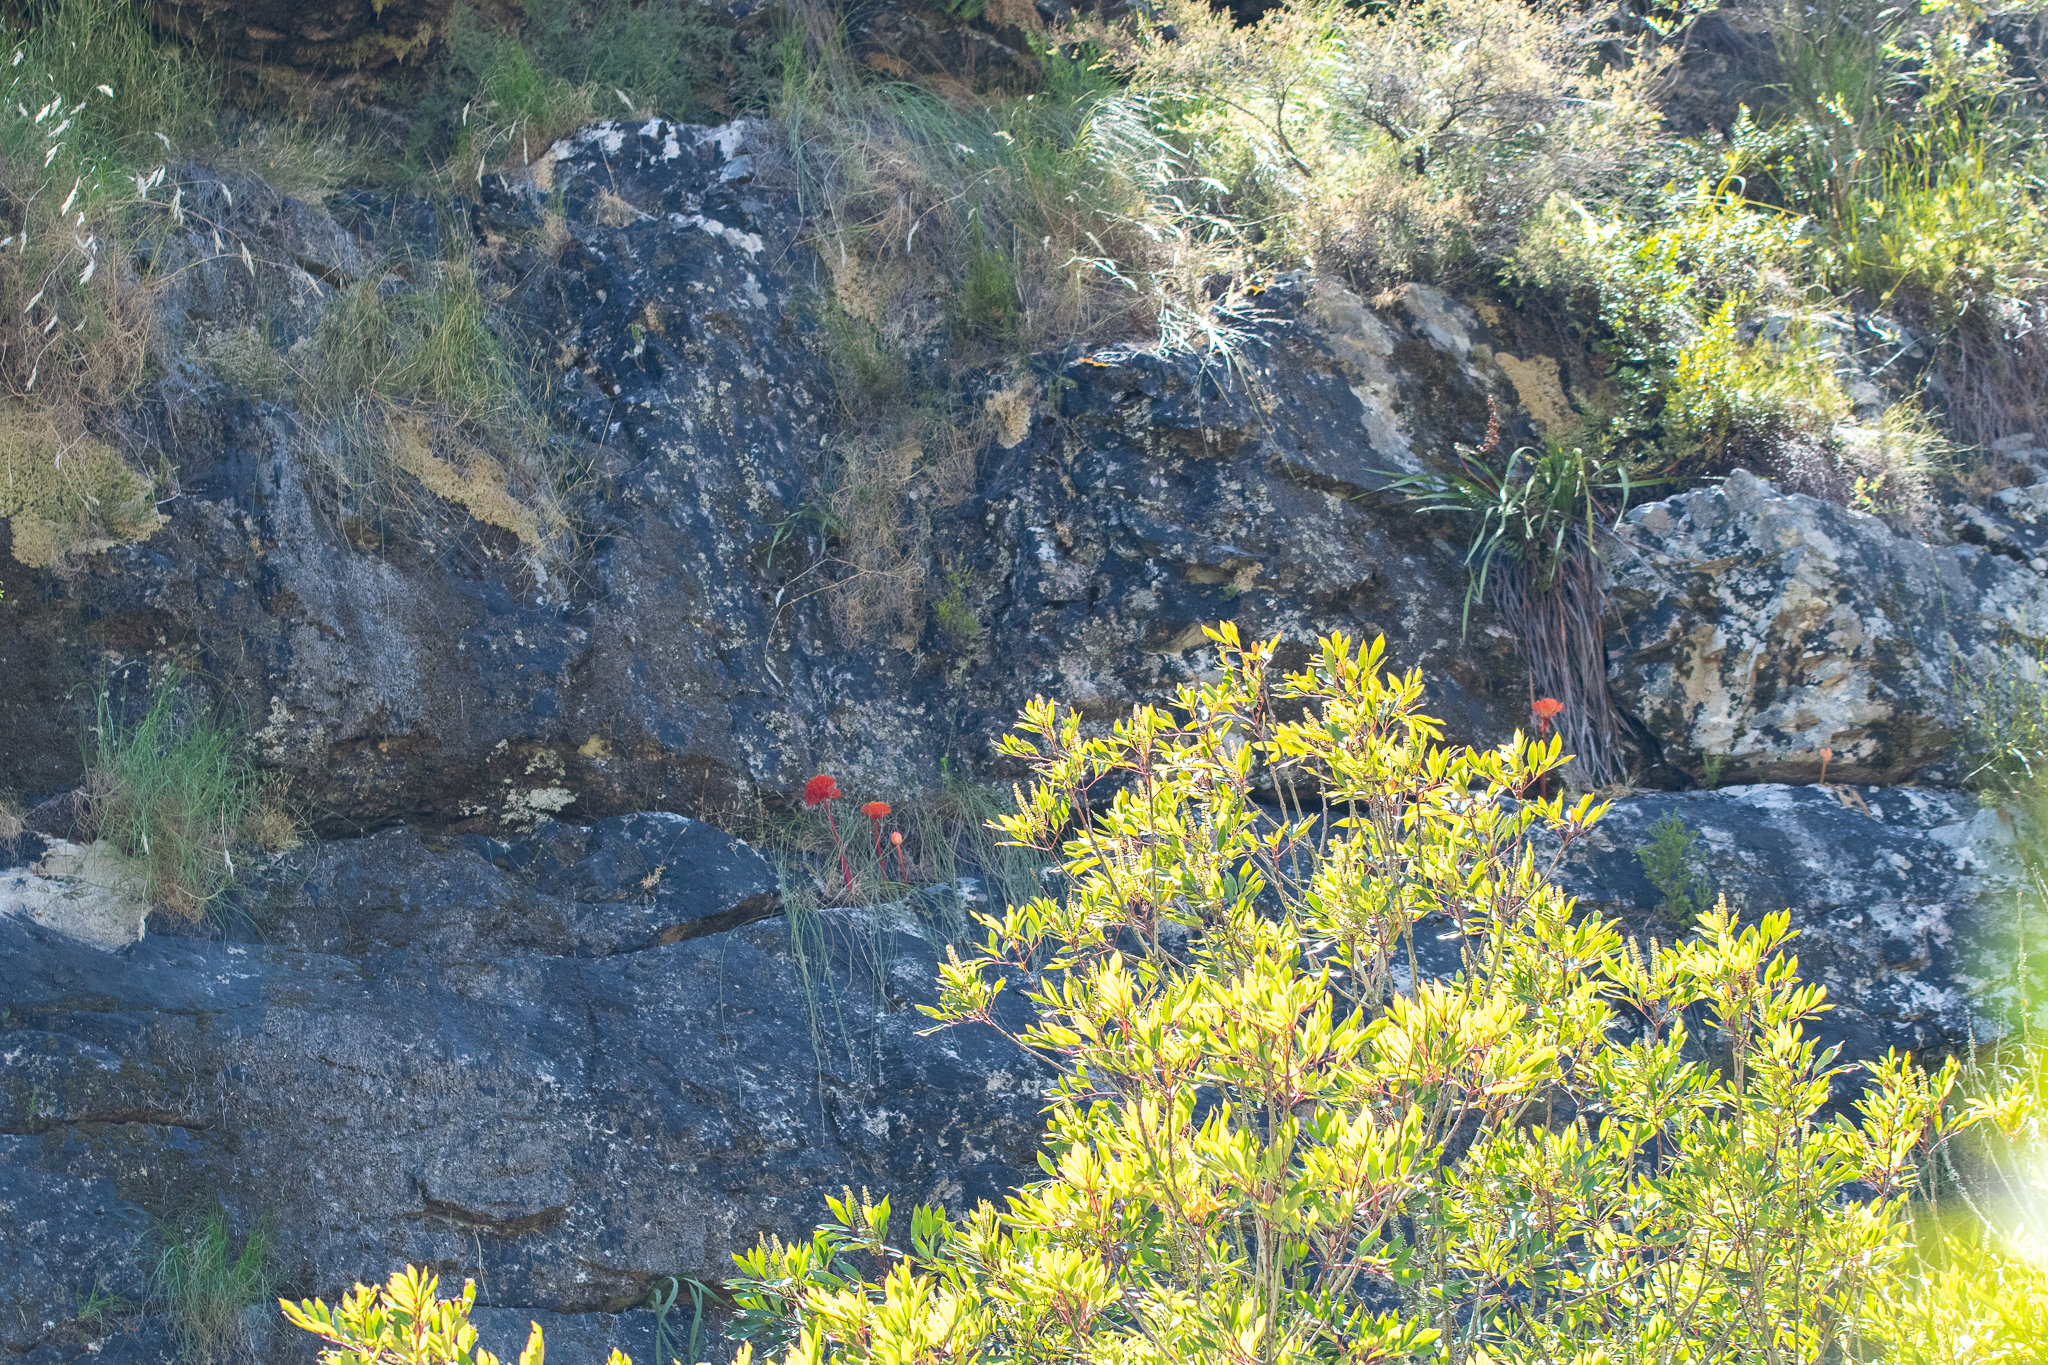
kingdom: Plantae
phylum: Tracheophyta
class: Liliopsida
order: Asparagales
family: Amaryllidaceae
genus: Haemanthus
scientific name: Haemanthus sanguineus
